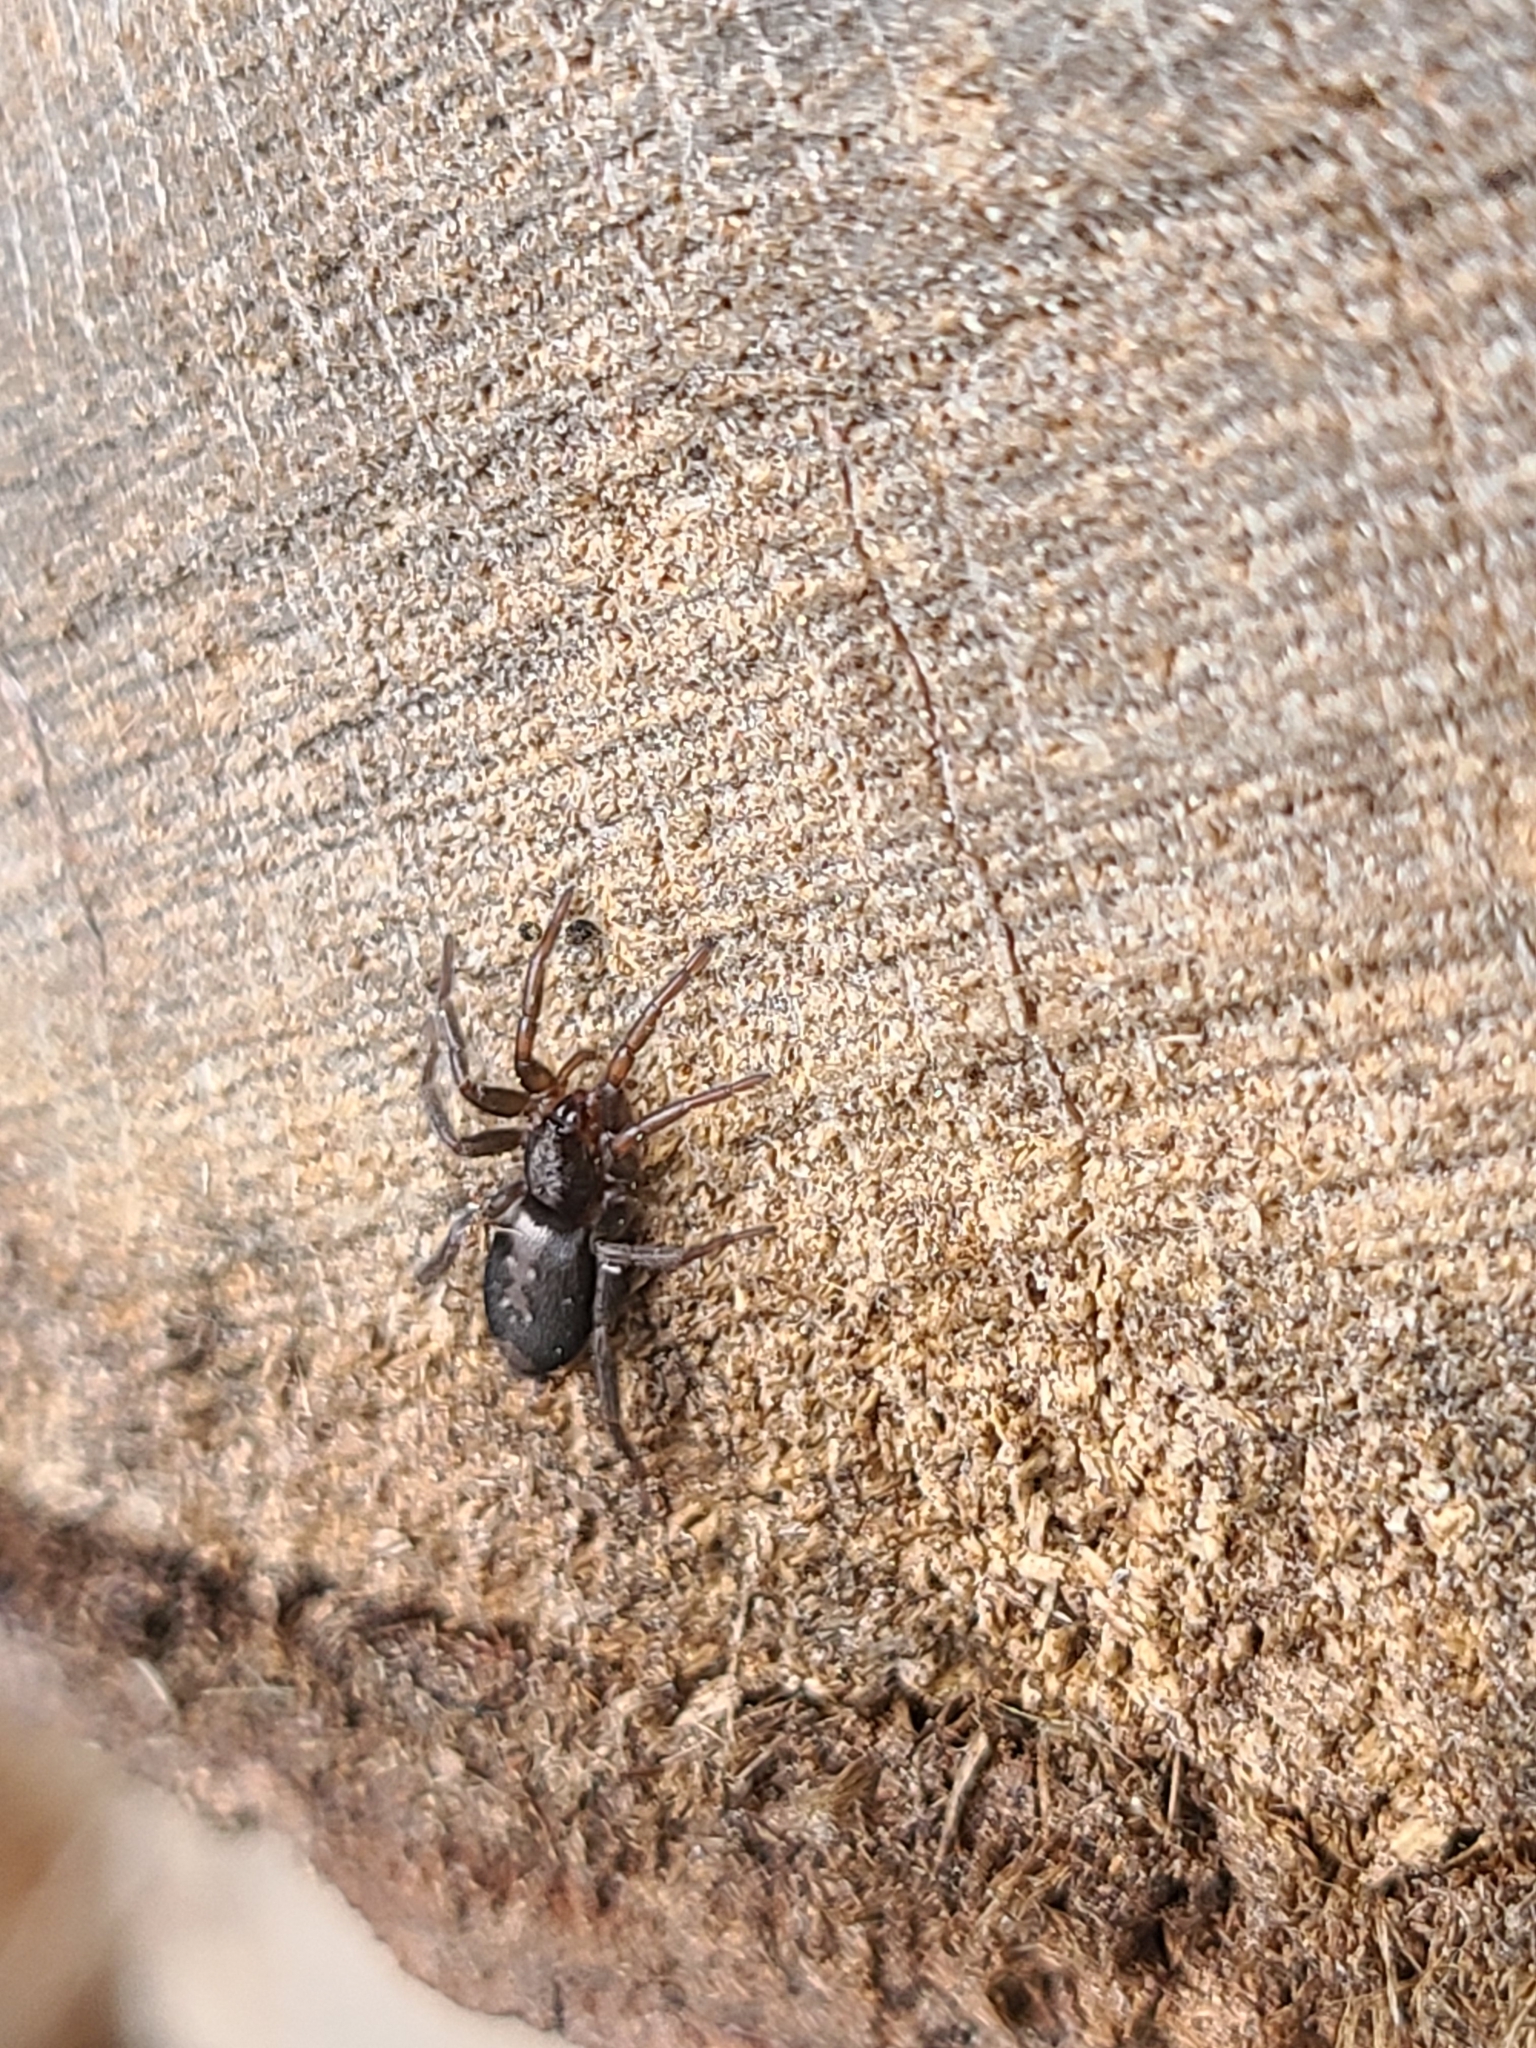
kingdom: Animalia
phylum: Arthropoda
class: Arachnida
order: Araneae
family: Gnaphosidae
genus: Herpyllus
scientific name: Herpyllus ecclesiasticus
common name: Eastern parson spider
